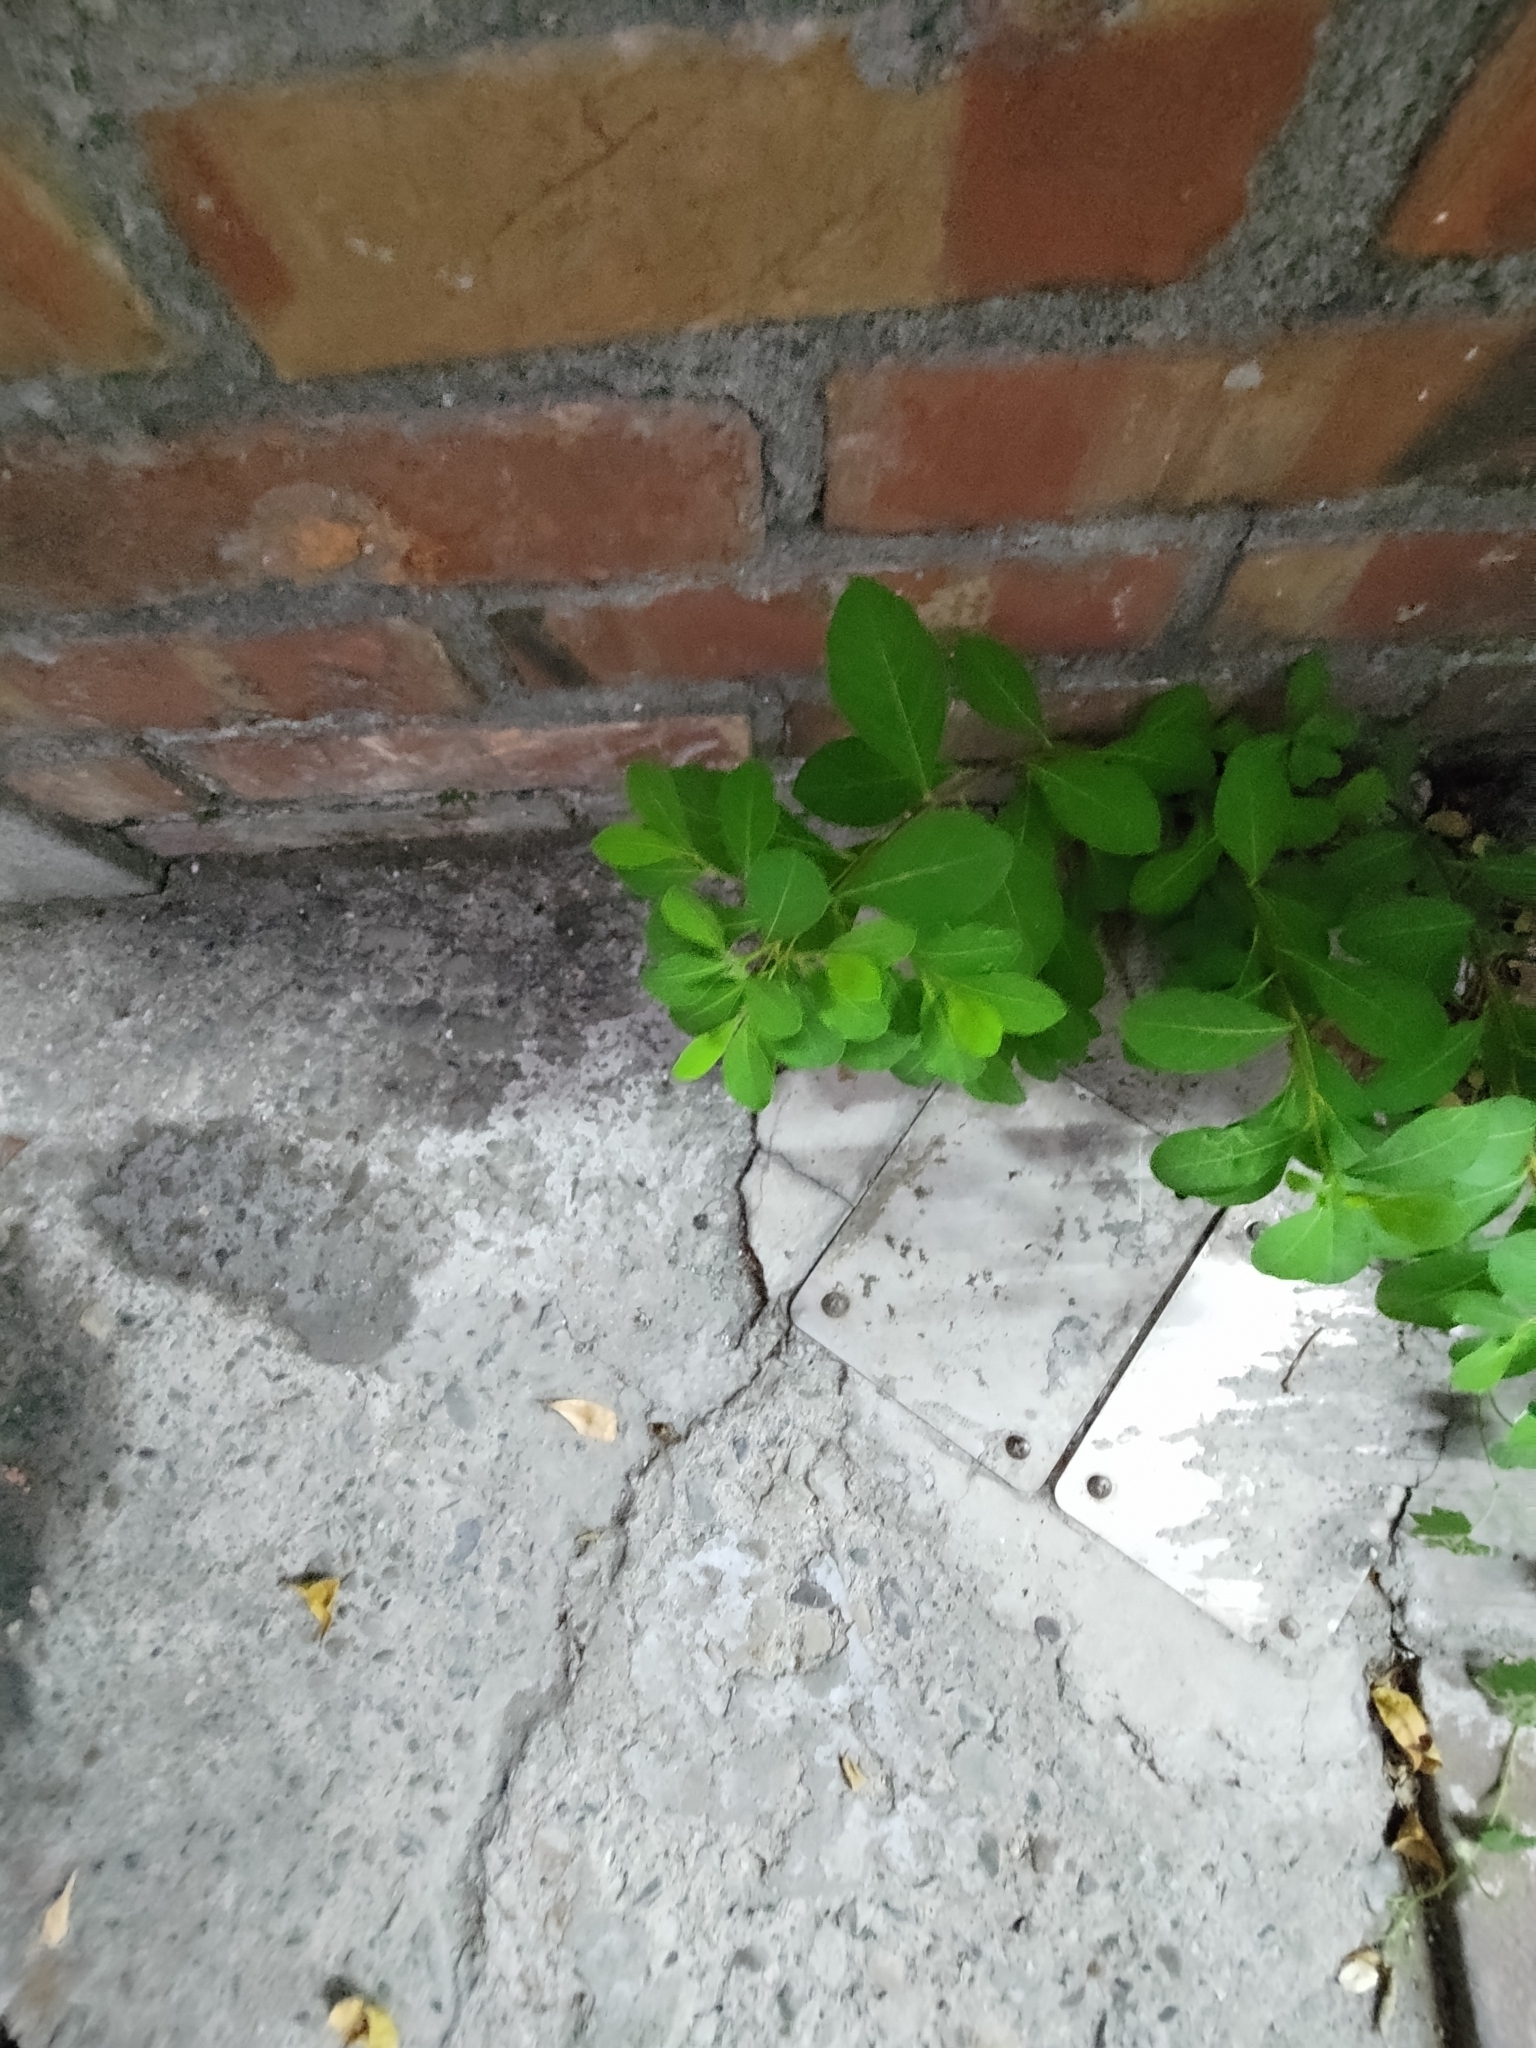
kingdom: Plantae
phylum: Tracheophyta
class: Magnoliopsida
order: Malpighiales
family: Phyllanthaceae
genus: Flueggea
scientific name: Flueggea virosa
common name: Common bushweed
